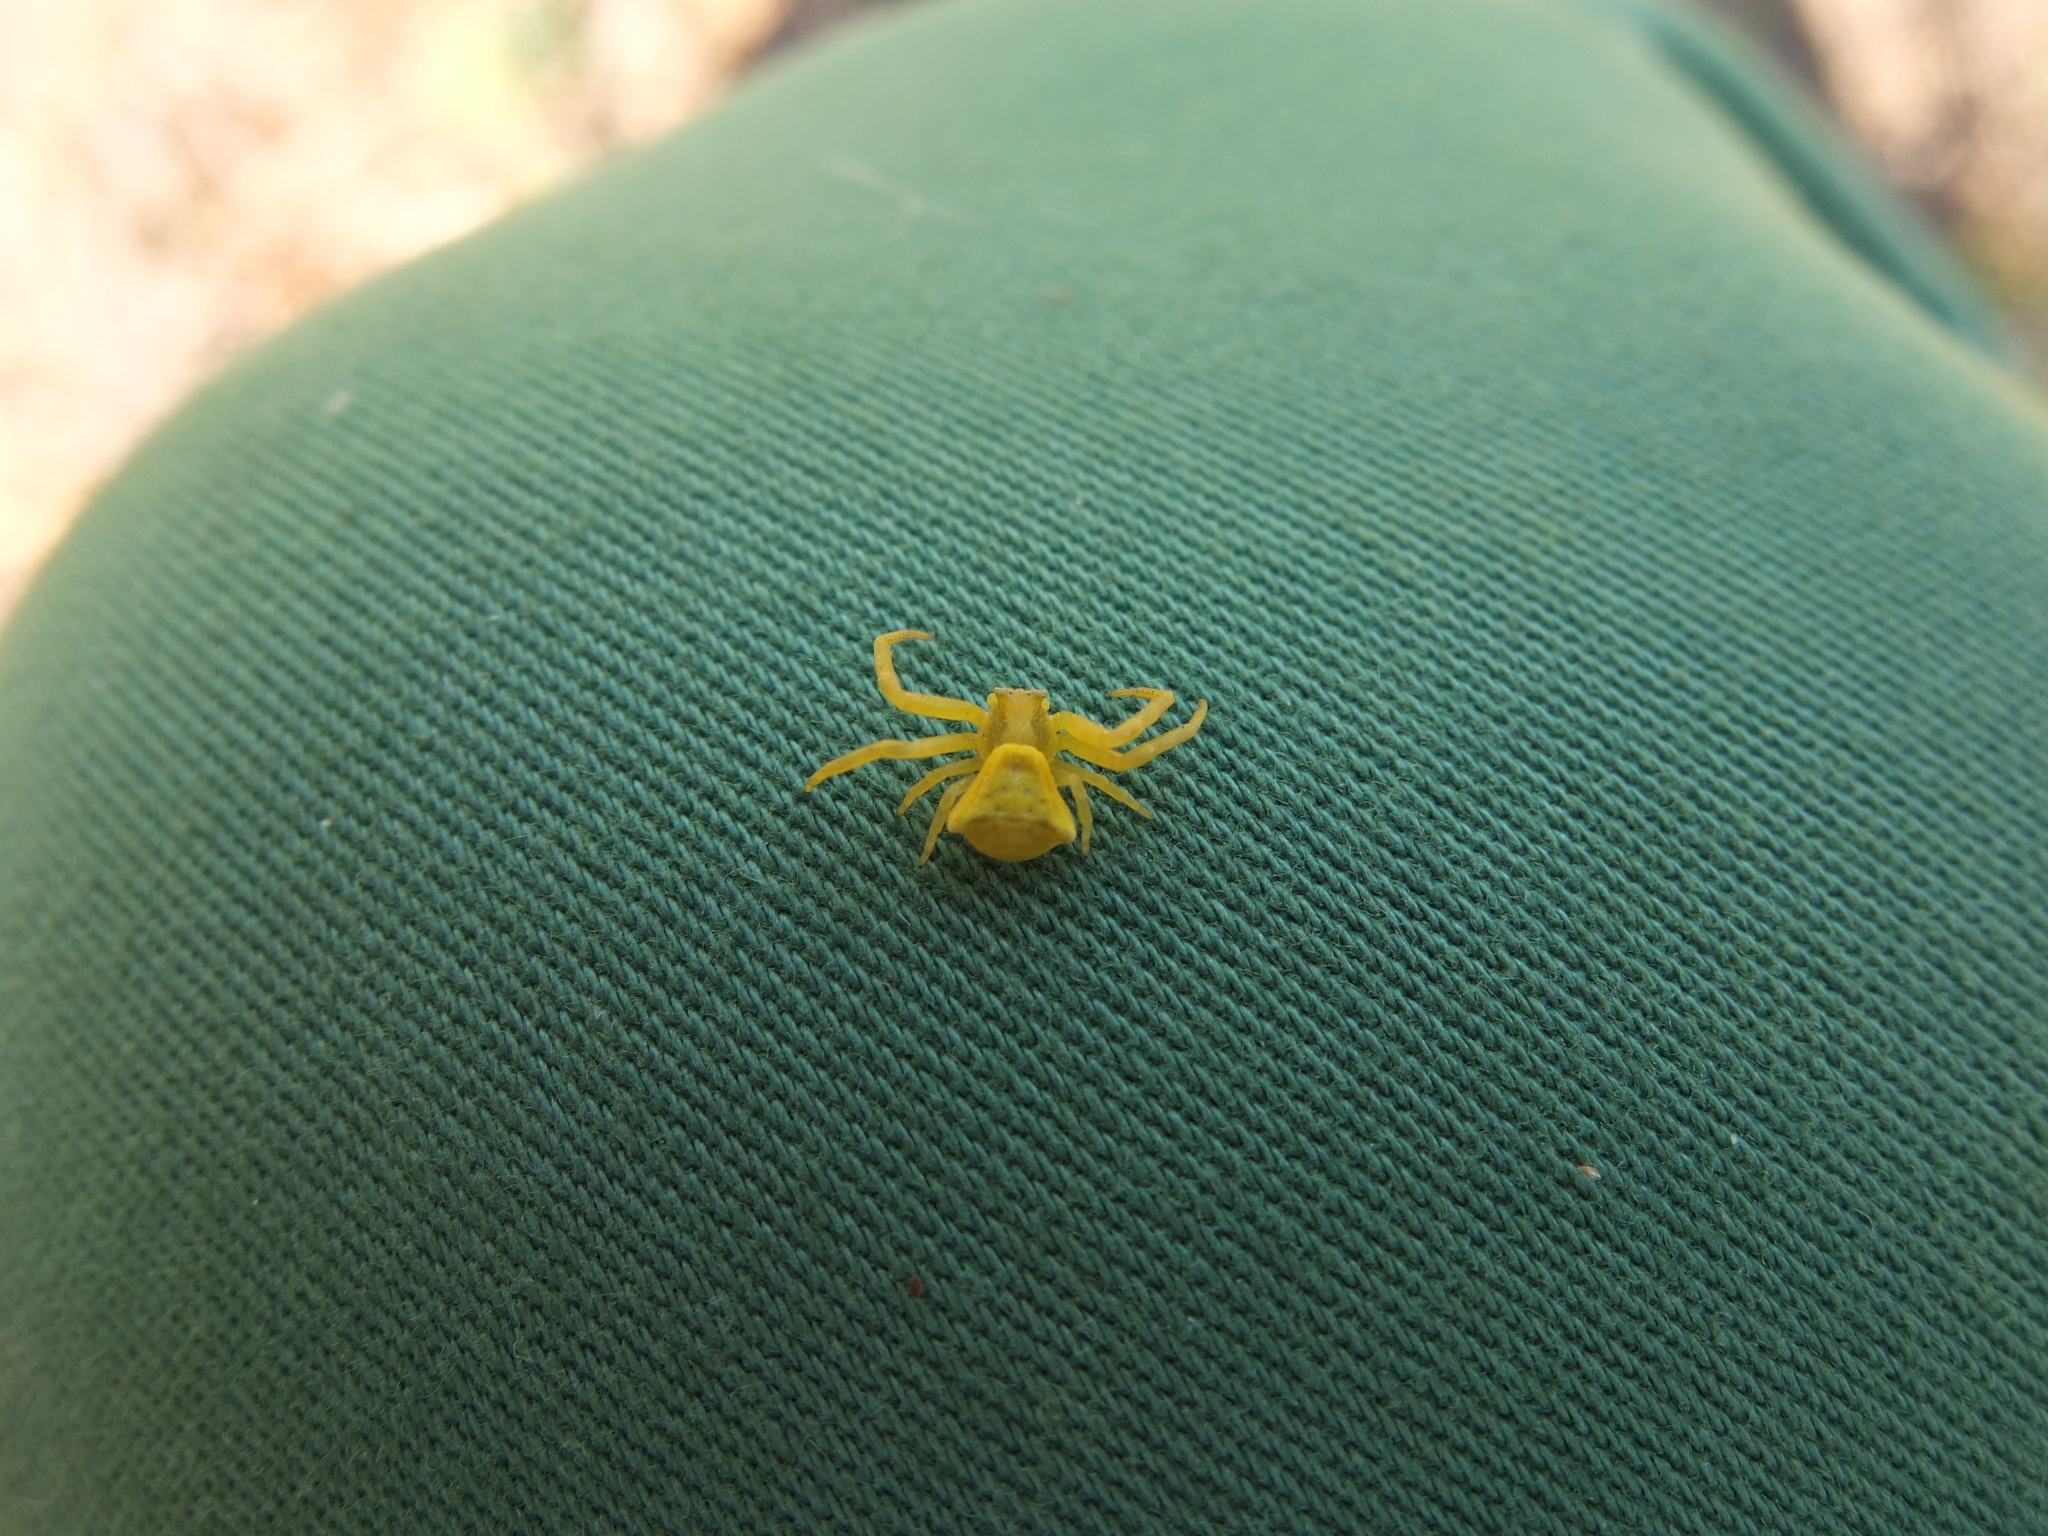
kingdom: Animalia
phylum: Arthropoda
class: Arachnida
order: Araneae
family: Thomisidae
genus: Thomisus
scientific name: Thomisus onustus
